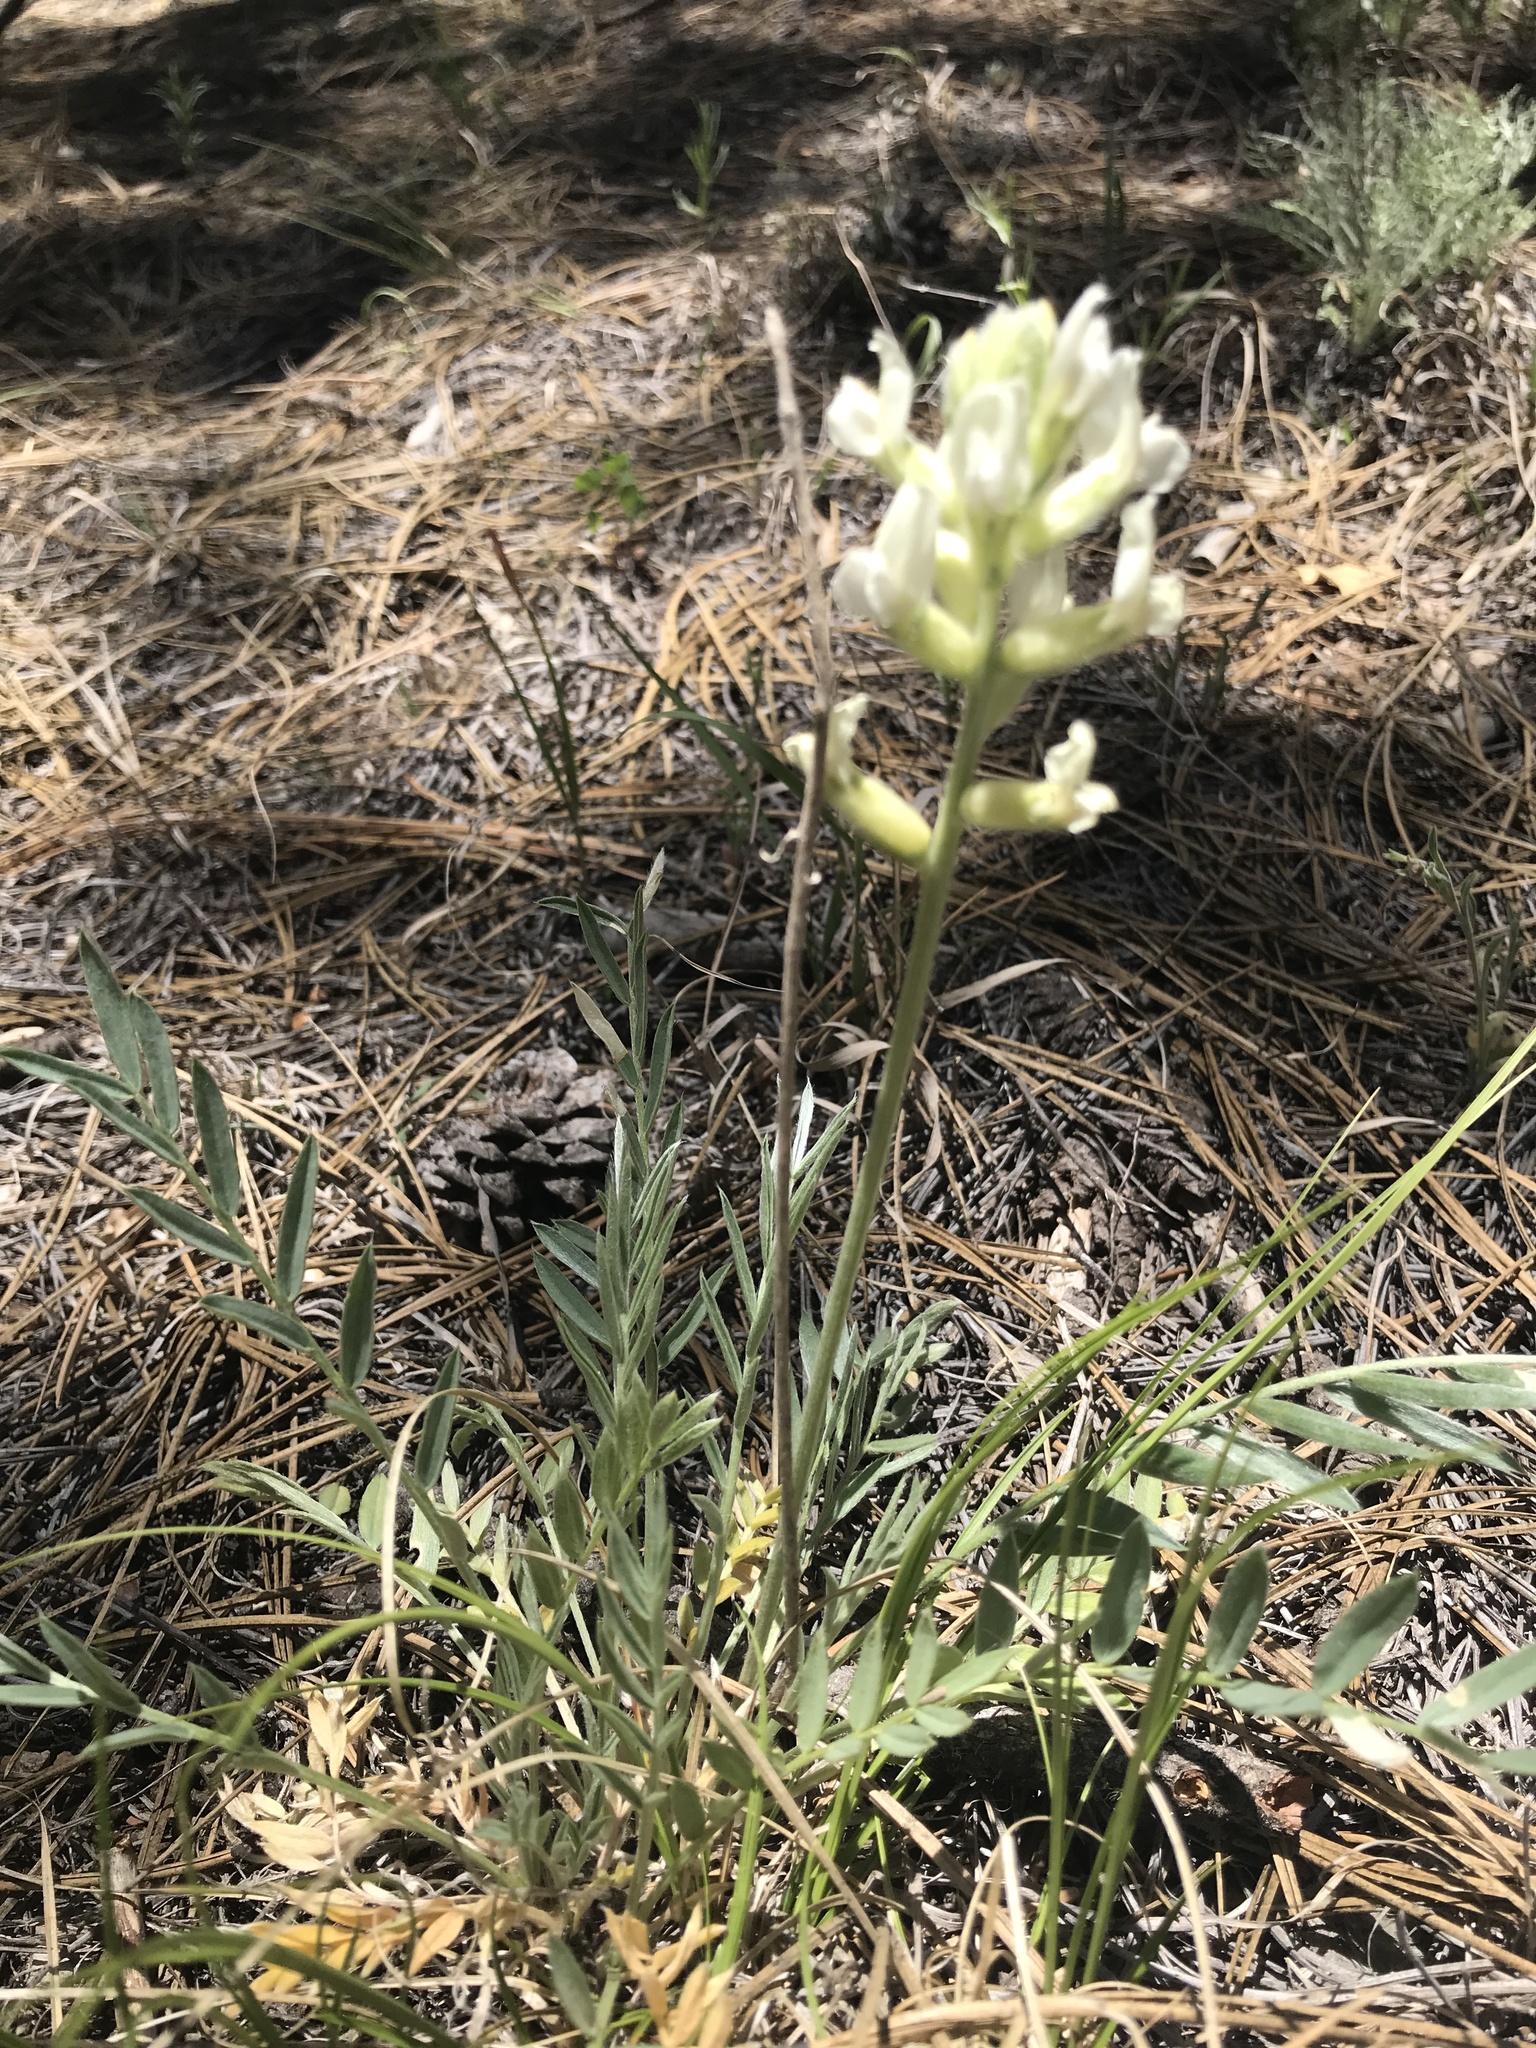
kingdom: Plantae
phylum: Tracheophyta
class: Magnoliopsida
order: Fabales
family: Fabaceae
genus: Oxytropis
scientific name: Oxytropis sericea
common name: Silky locoweed
